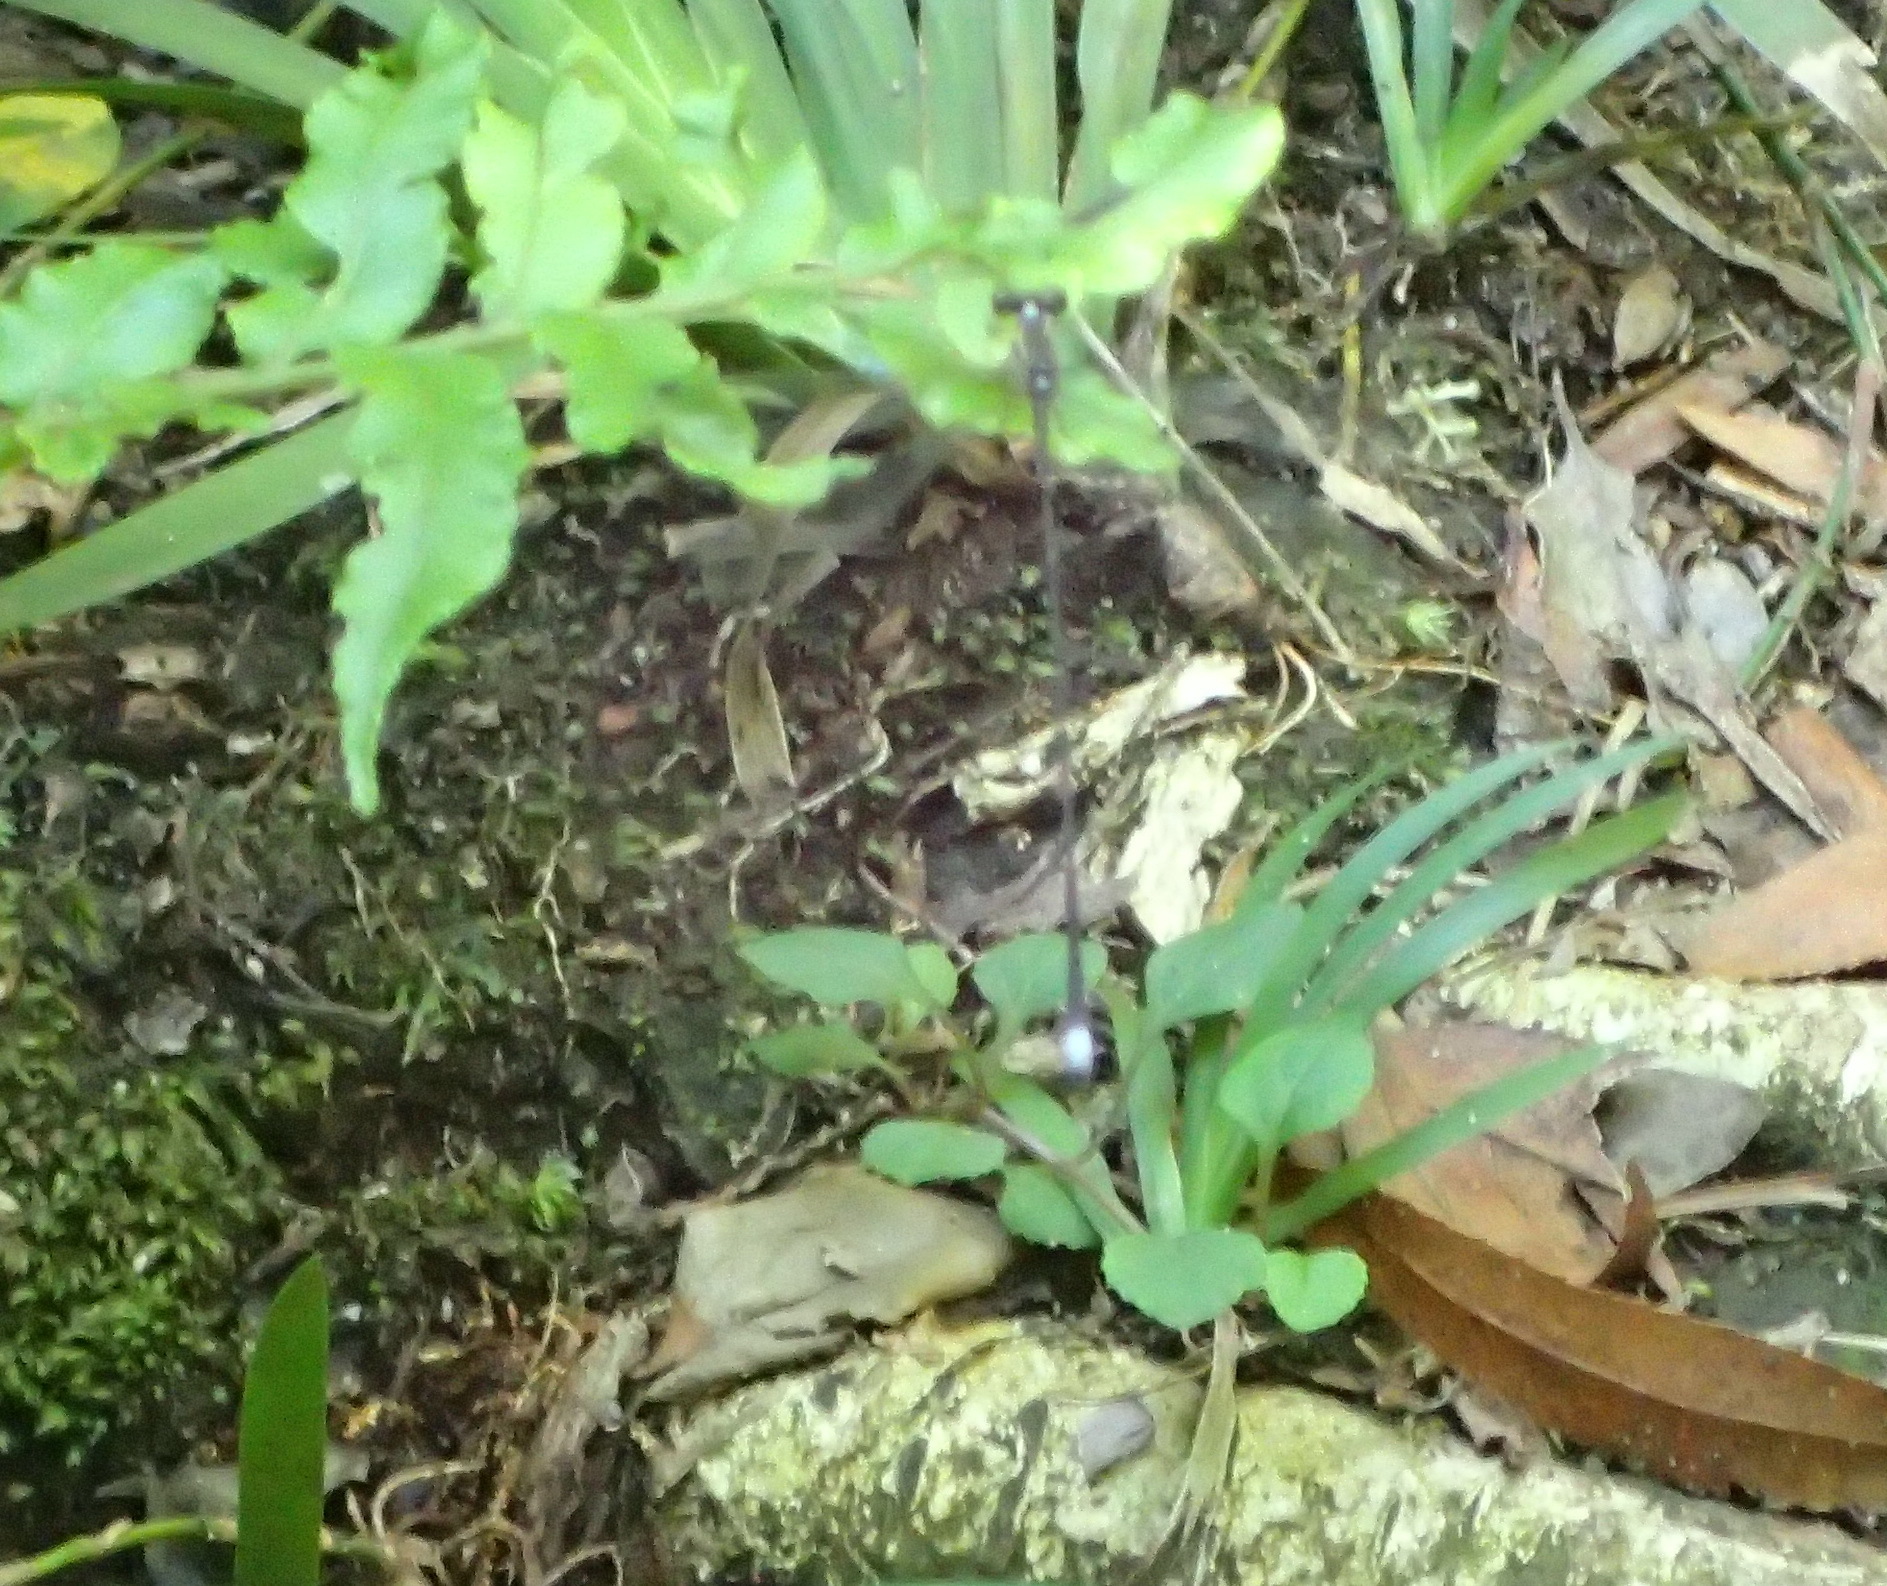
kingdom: Animalia
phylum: Arthropoda
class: Insecta
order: Odonata
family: Synlestidae
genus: Ecchlorolestes
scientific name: Ecchlorolestes nylephtha
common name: Queen malachite
